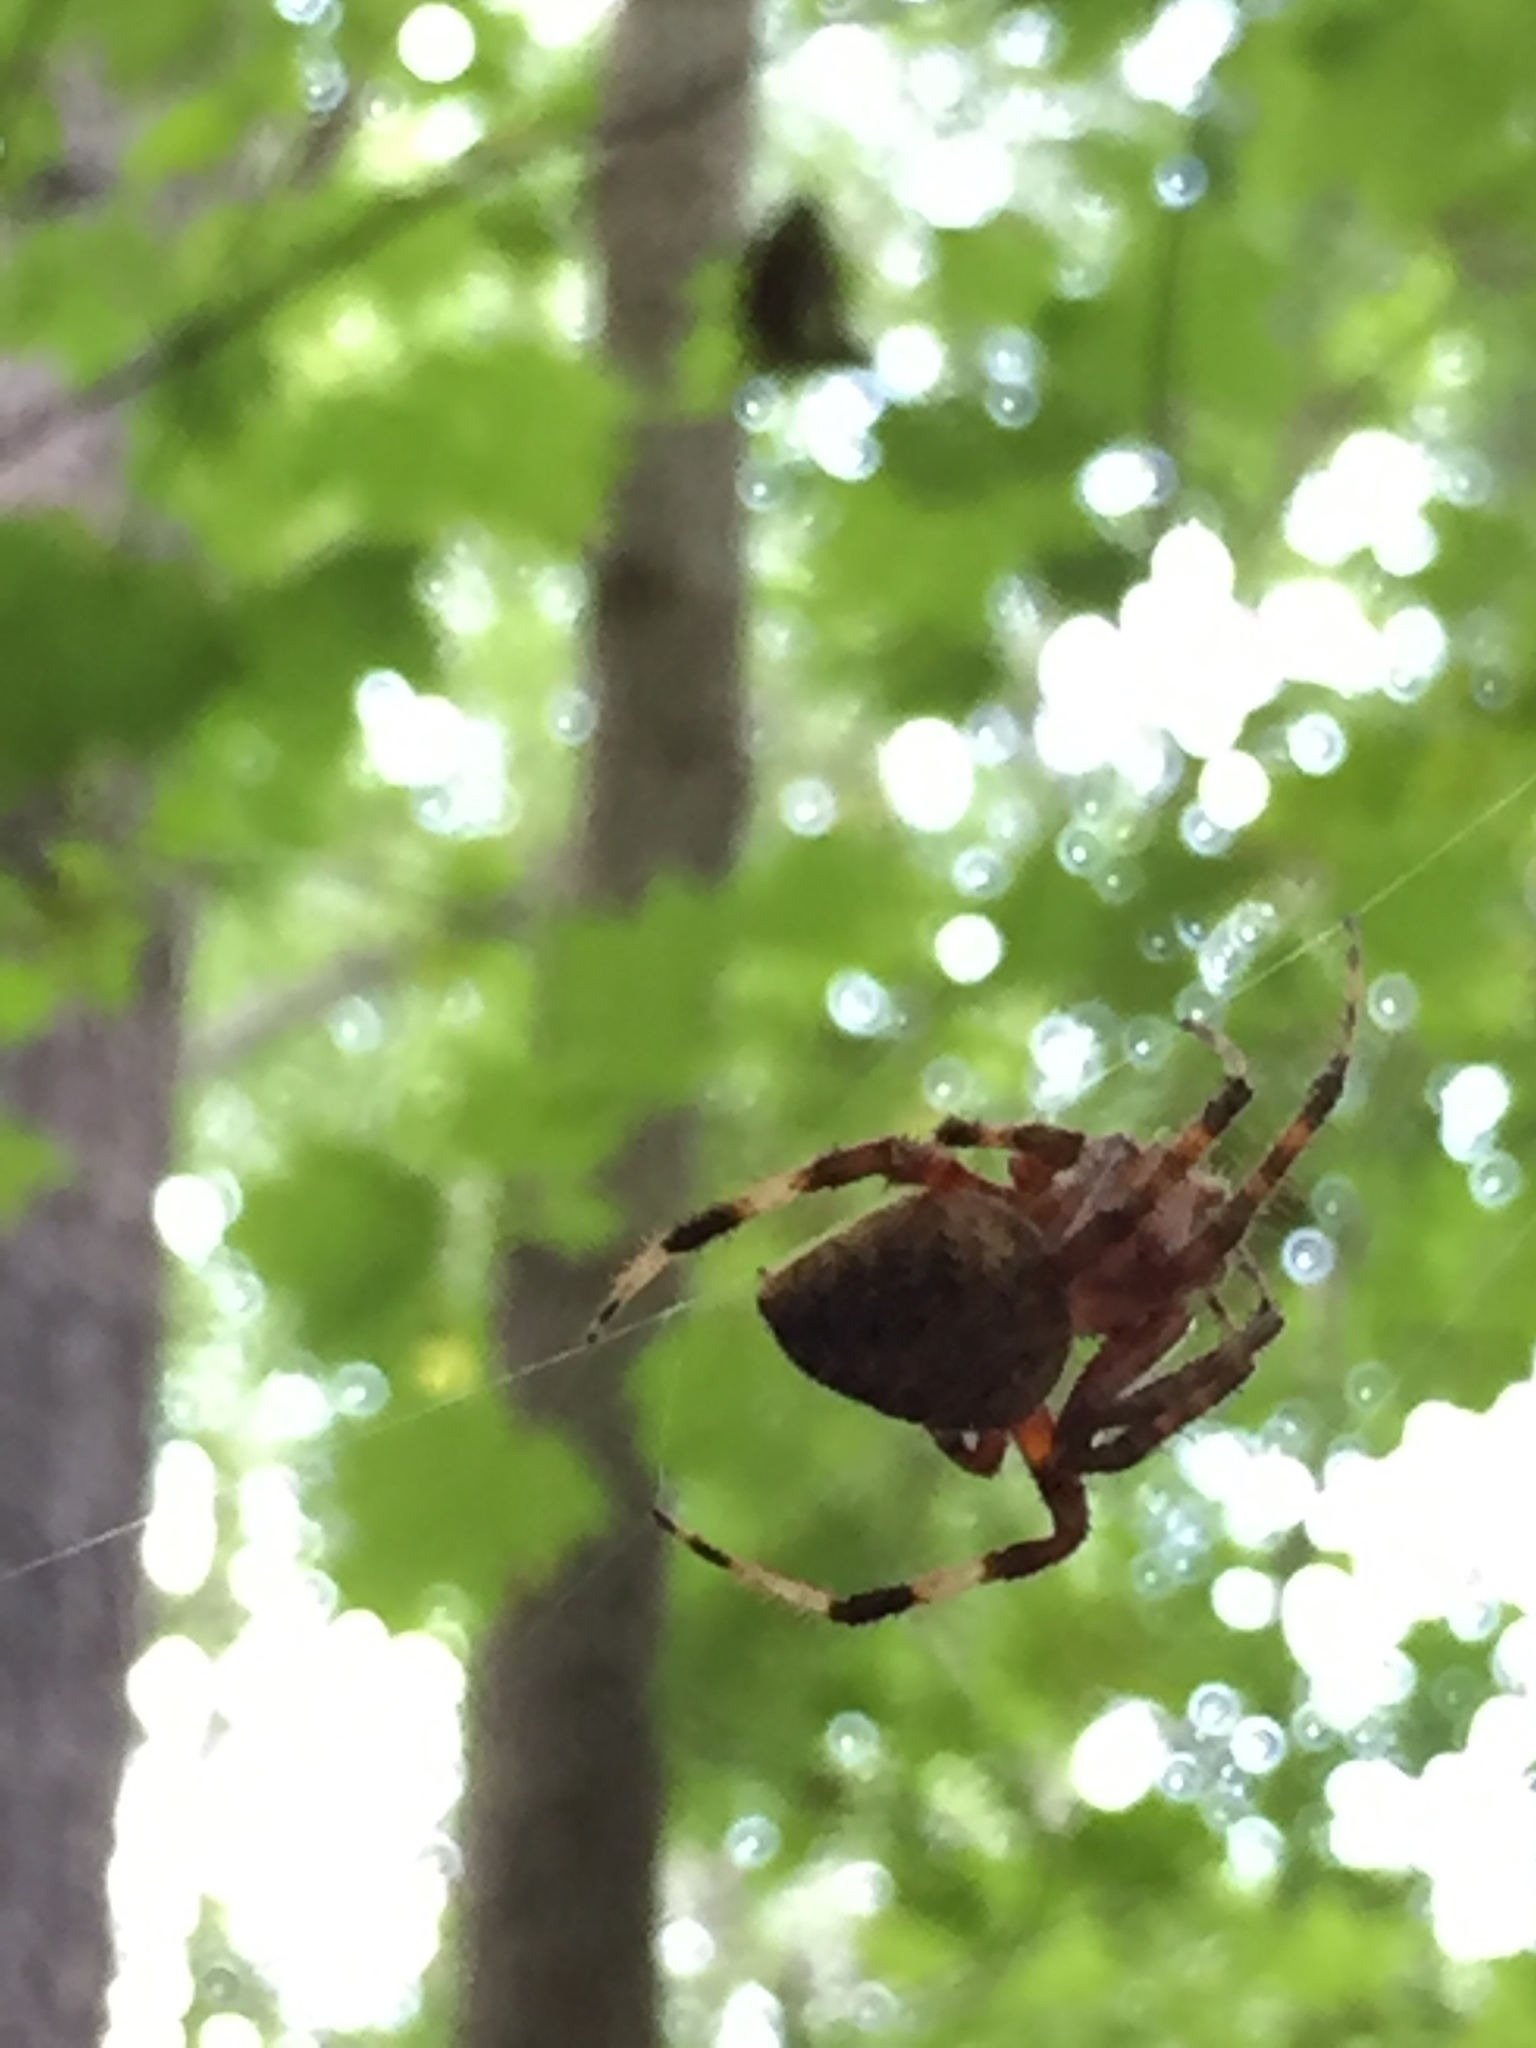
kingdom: Animalia
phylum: Arthropoda
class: Arachnida
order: Araneae
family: Araneidae
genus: Neoscona
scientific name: Neoscona crucifera
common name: Spotted orbweaver
